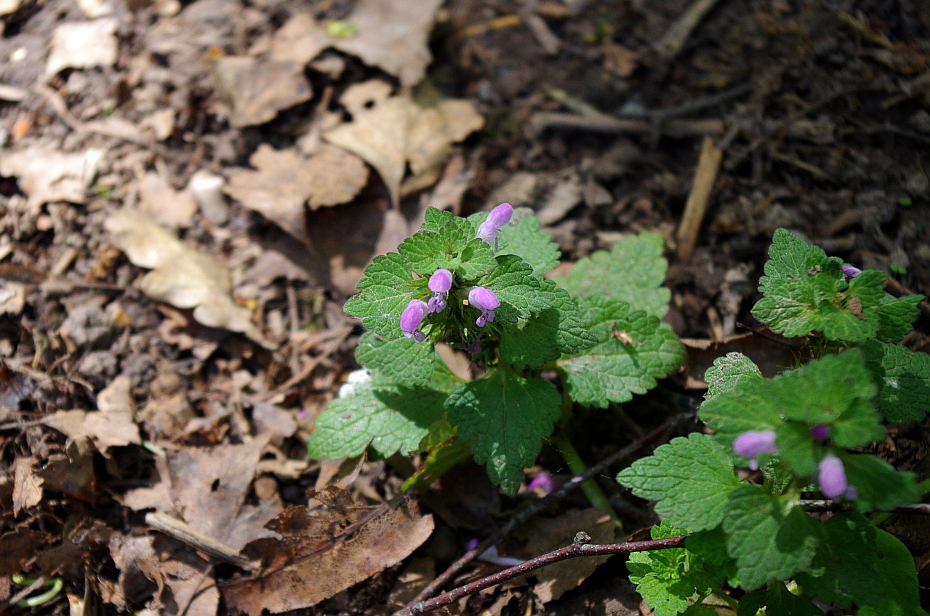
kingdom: Plantae
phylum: Tracheophyta
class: Magnoliopsida
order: Lamiales
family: Lamiaceae
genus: Lamium
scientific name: Lamium purpureum
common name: Red dead-nettle
